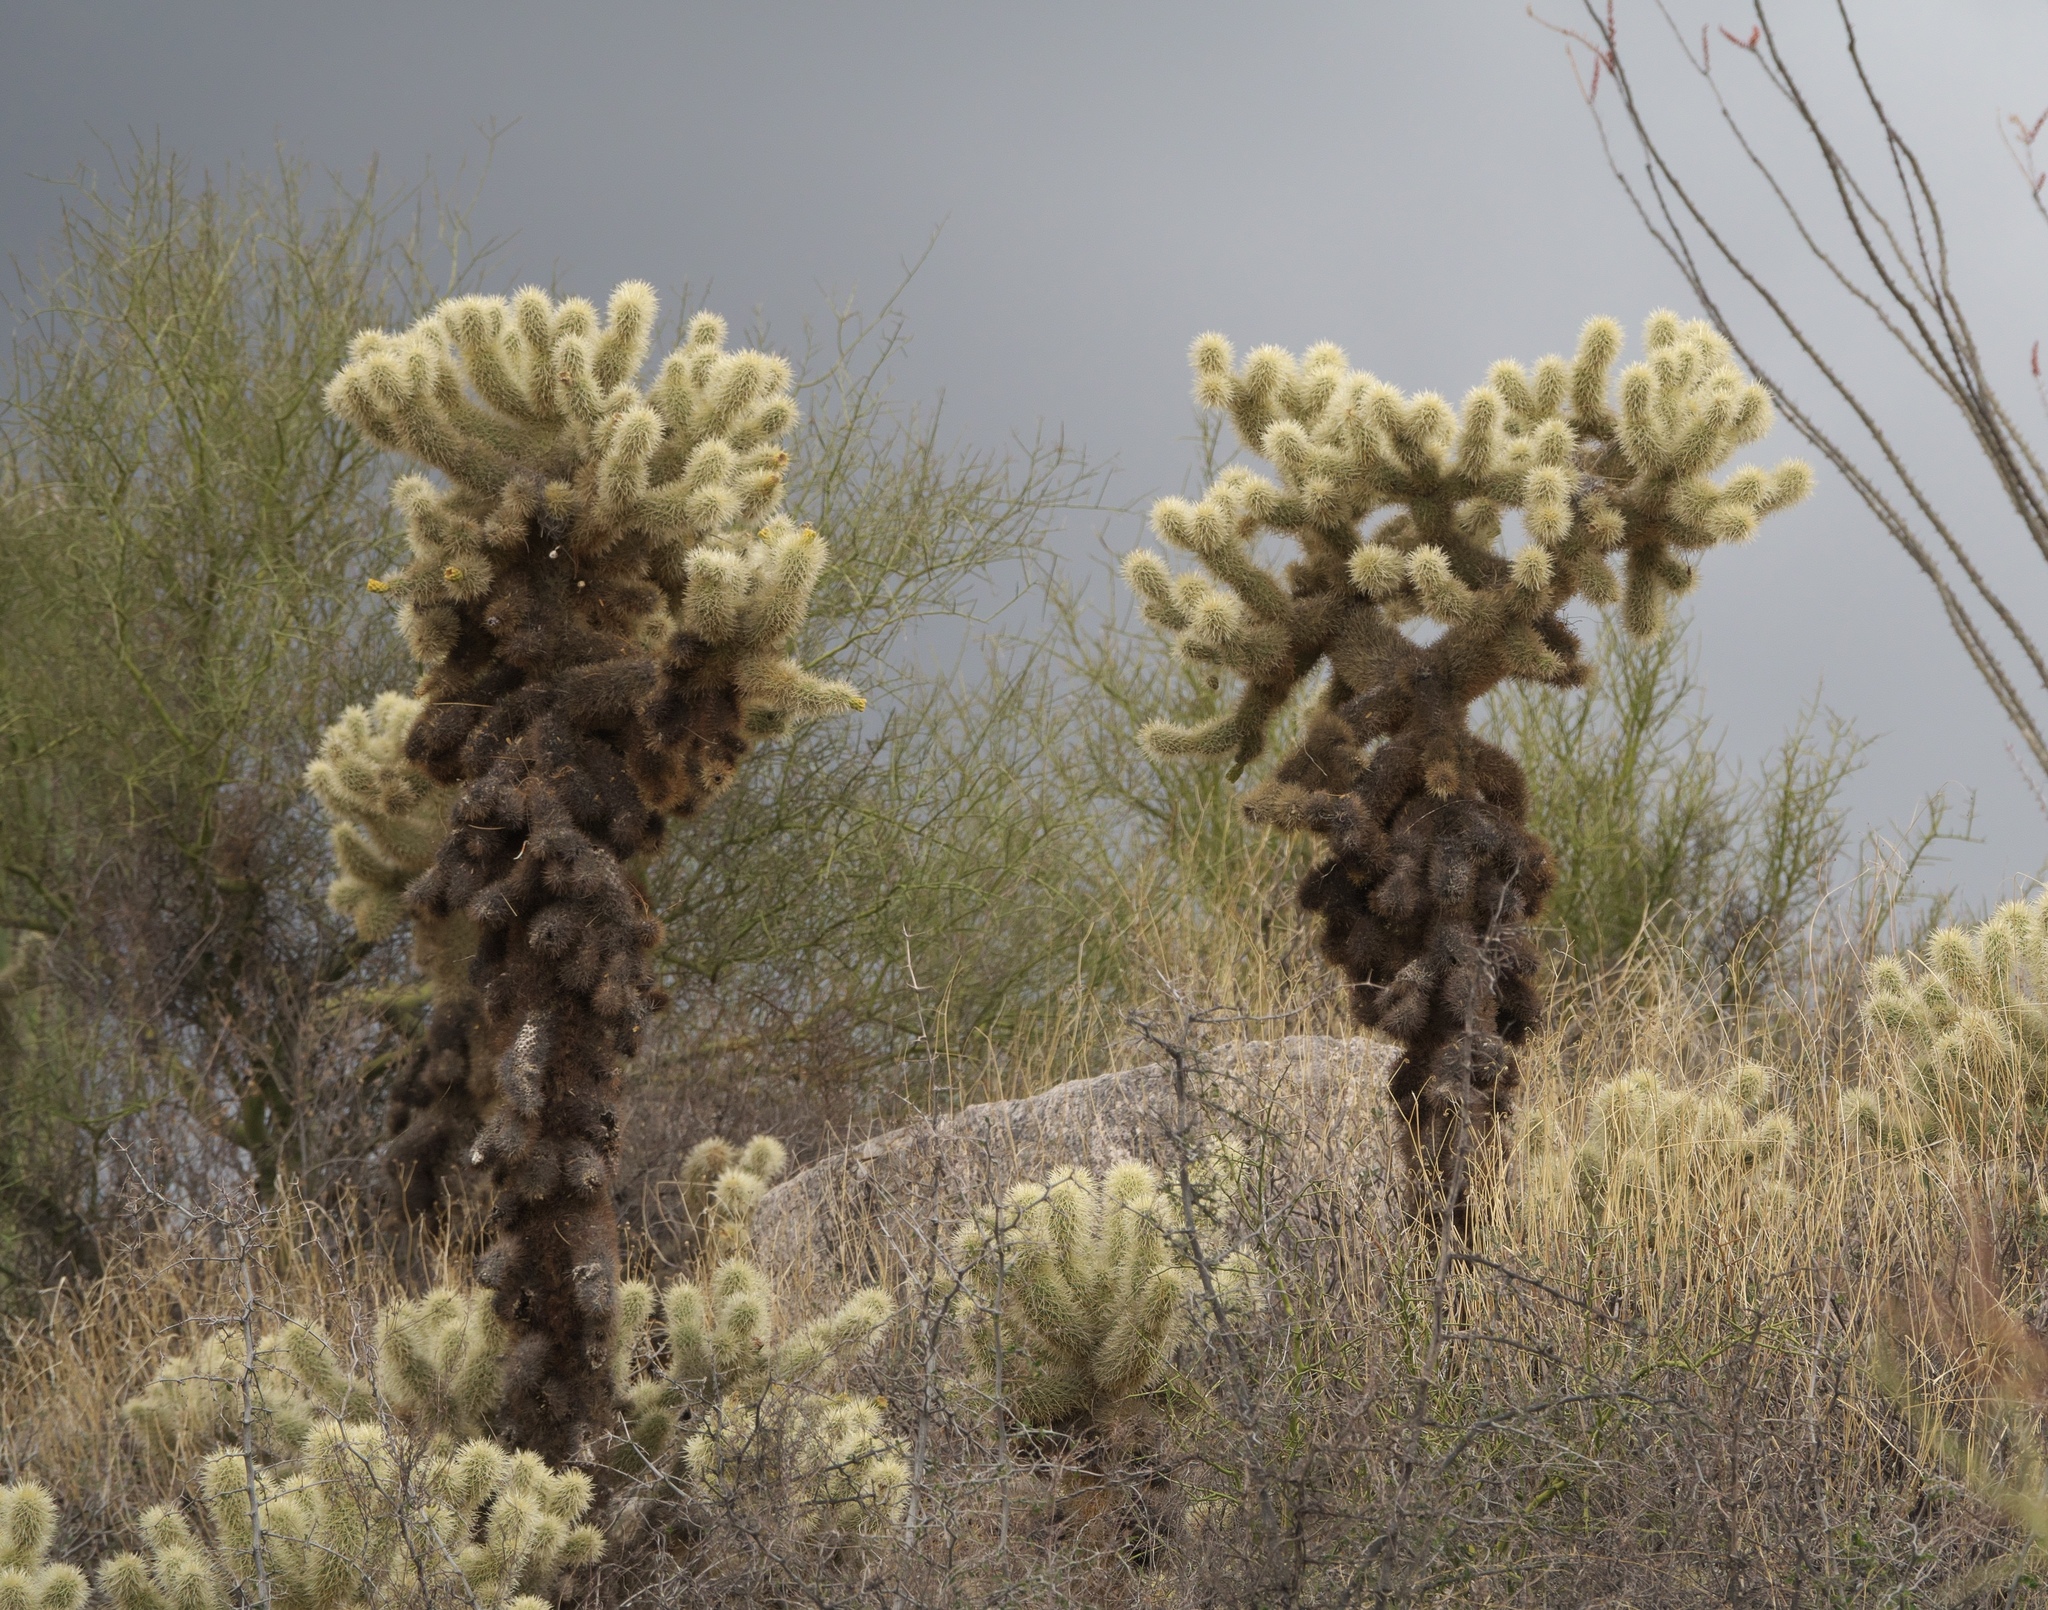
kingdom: Plantae
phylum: Tracheophyta
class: Magnoliopsida
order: Caryophyllales
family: Cactaceae
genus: Cylindropuntia
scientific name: Cylindropuntia fosbergii
